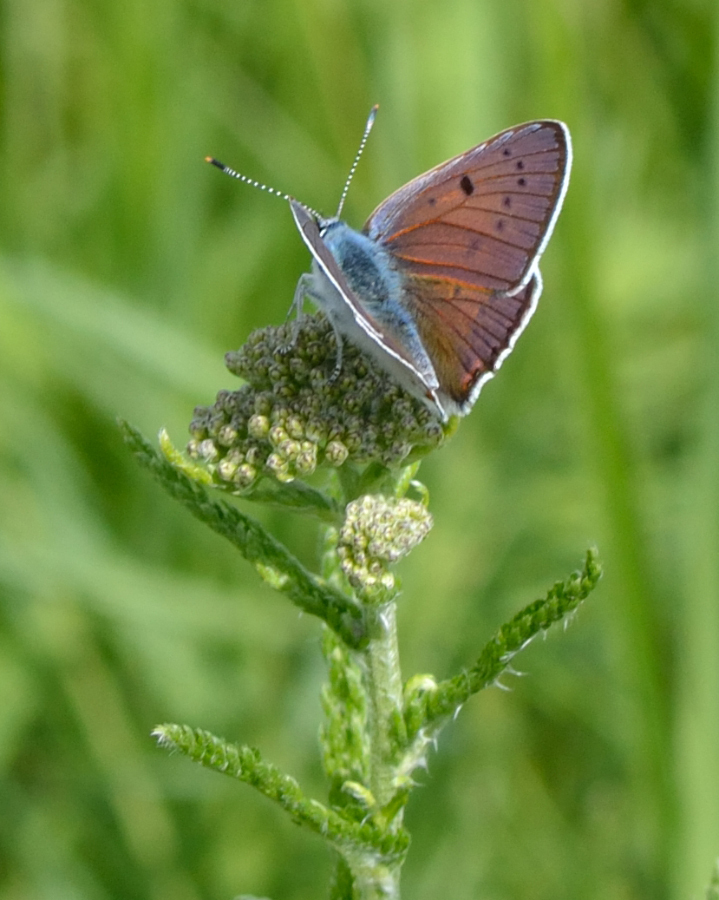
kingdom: Animalia
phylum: Arthropoda
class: Insecta
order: Lepidoptera
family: Lycaenidae
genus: Lycaena
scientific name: Lycaena alciphron
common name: Purple-shot copper
